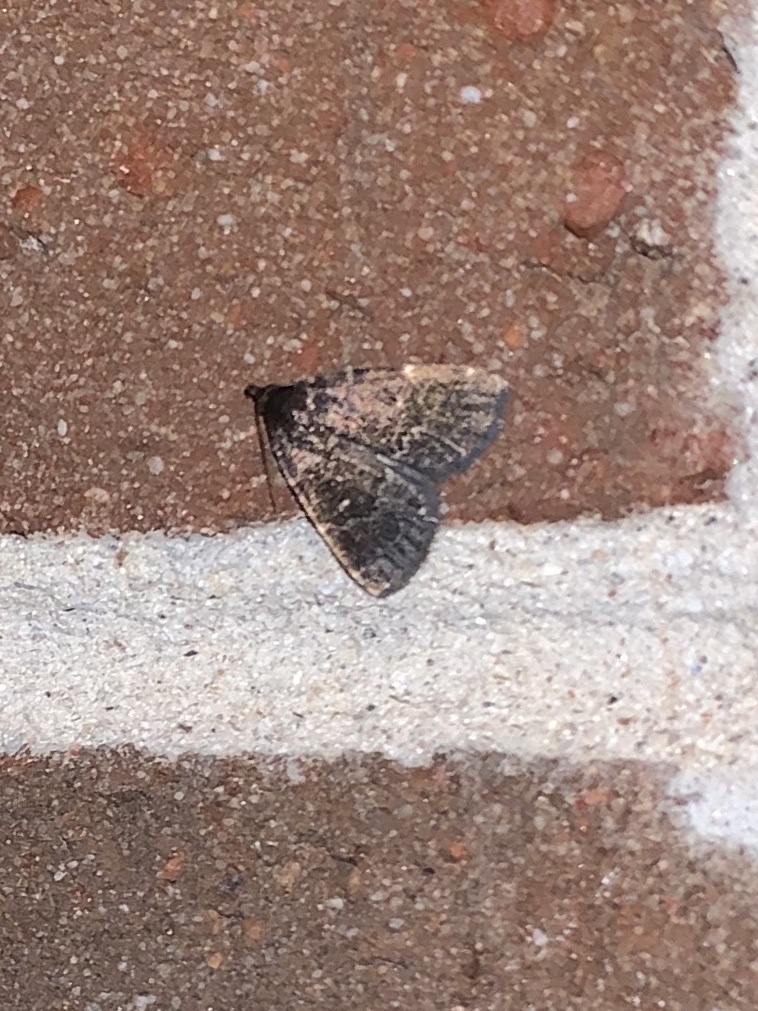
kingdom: Animalia
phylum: Arthropoda
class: Insecta
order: Lepidoptera
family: Erebidae
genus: Idia
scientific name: Idia julia
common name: Julia's idia moth
